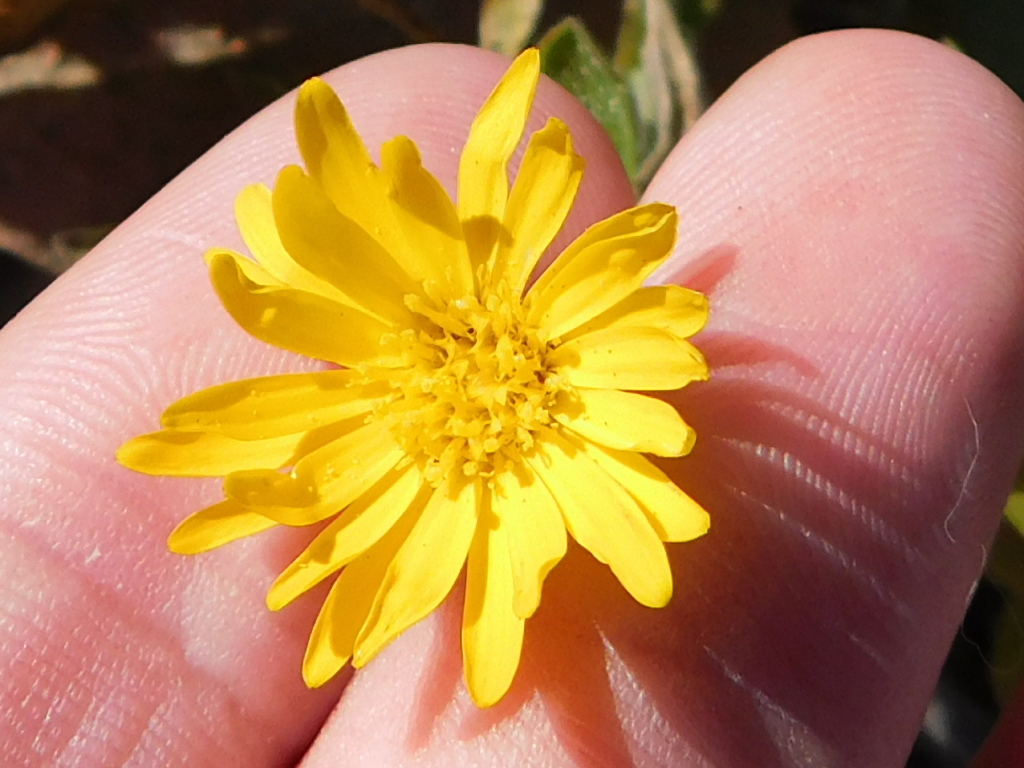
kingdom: Plantae
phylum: Tracheophyta
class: Magnoliopsida
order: Asterales
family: Asteraceae
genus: Heterotheca
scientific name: Heterotheca subaxillaris
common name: Camphorweed
